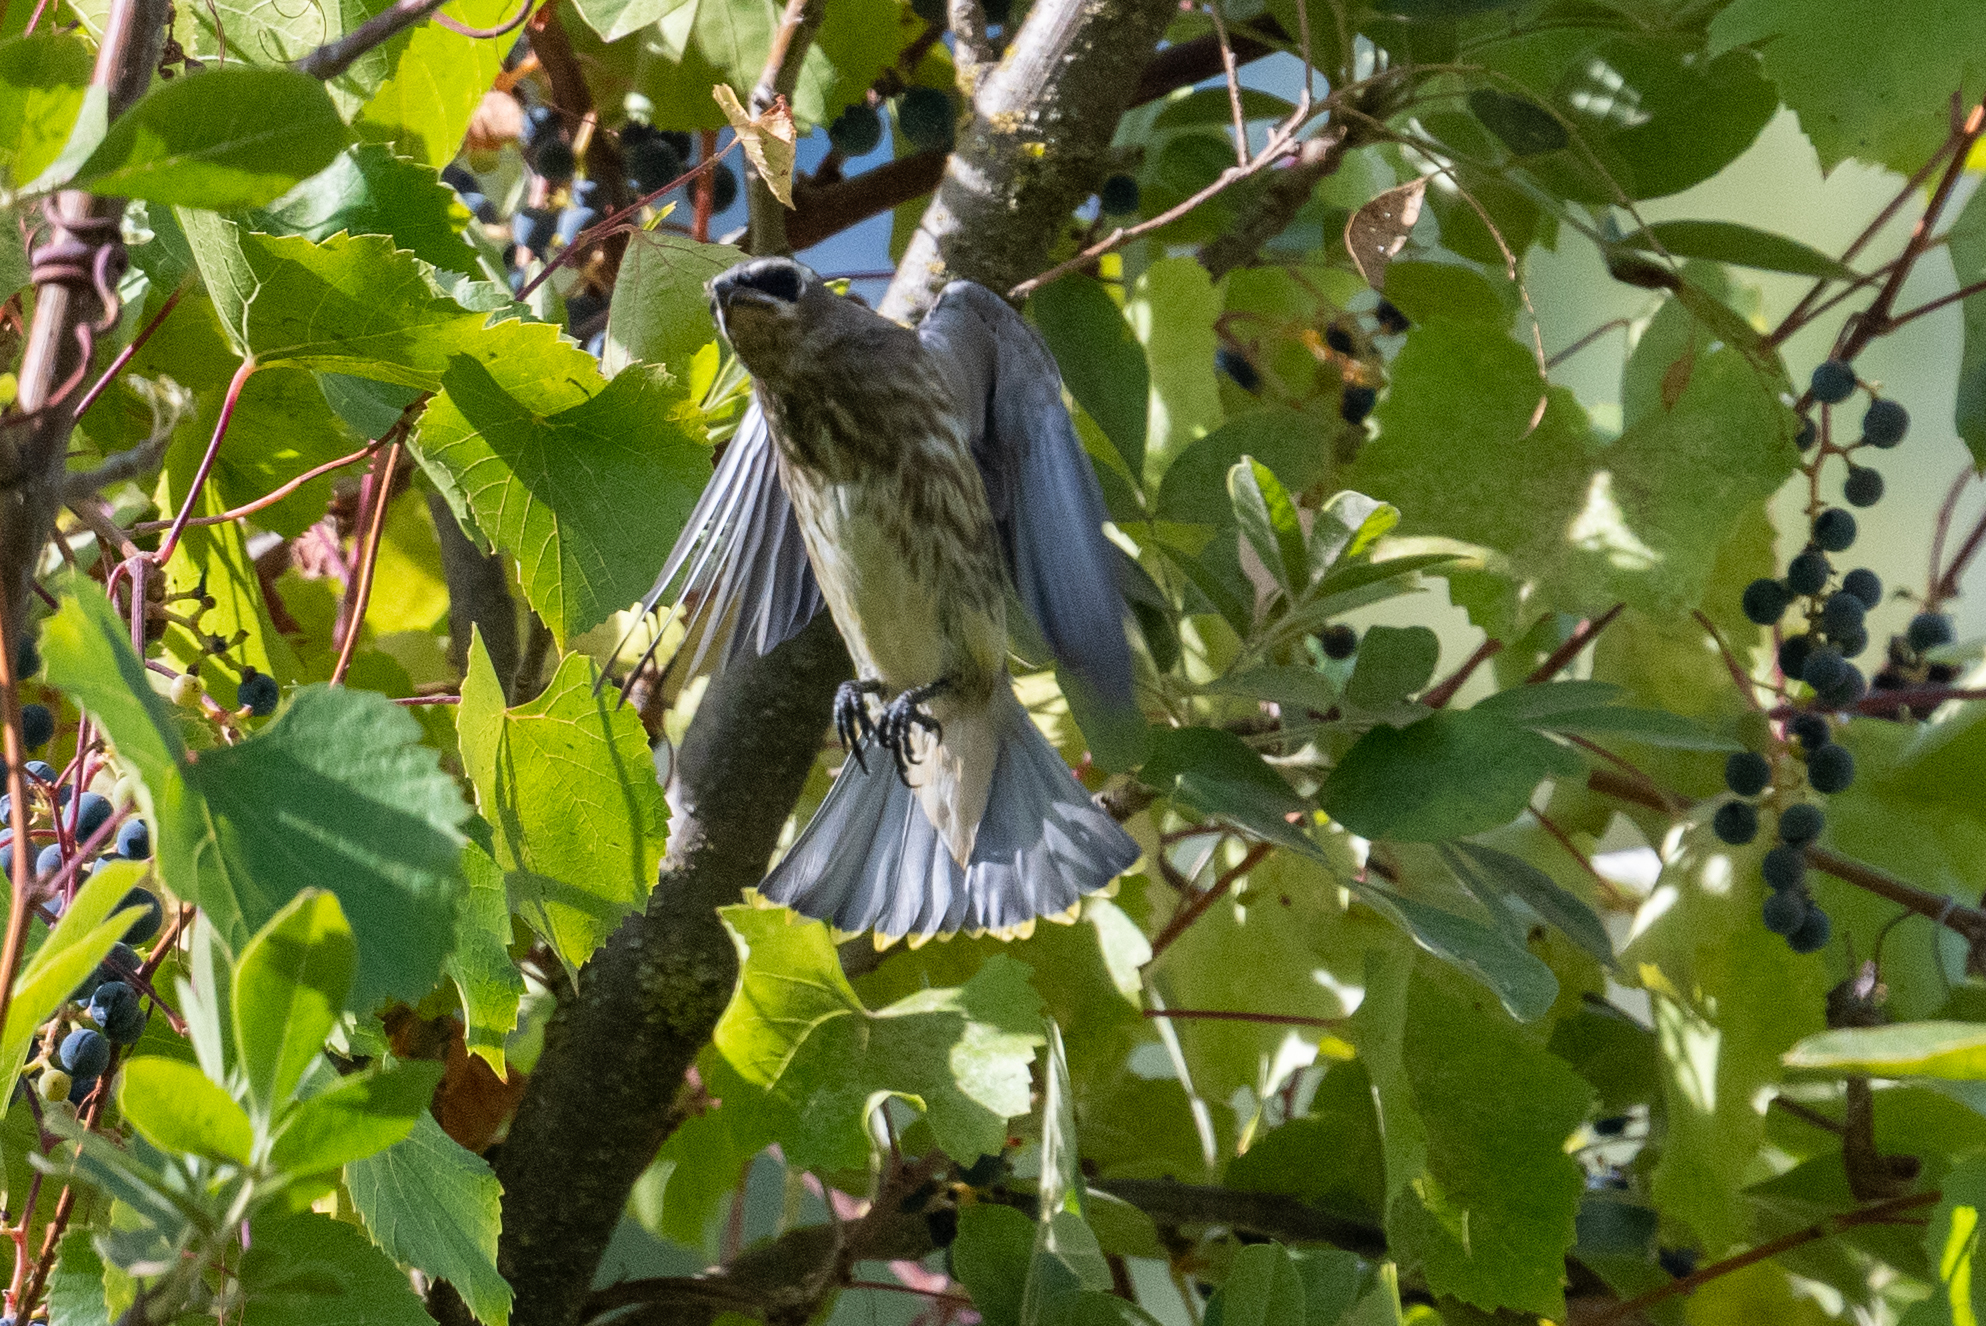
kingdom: Animalia
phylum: Chordata
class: Aves
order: Passeriformes
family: Bombycillidae
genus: Bombycilla
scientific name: Bombycilla cedrorum
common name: Cedar waxwing
